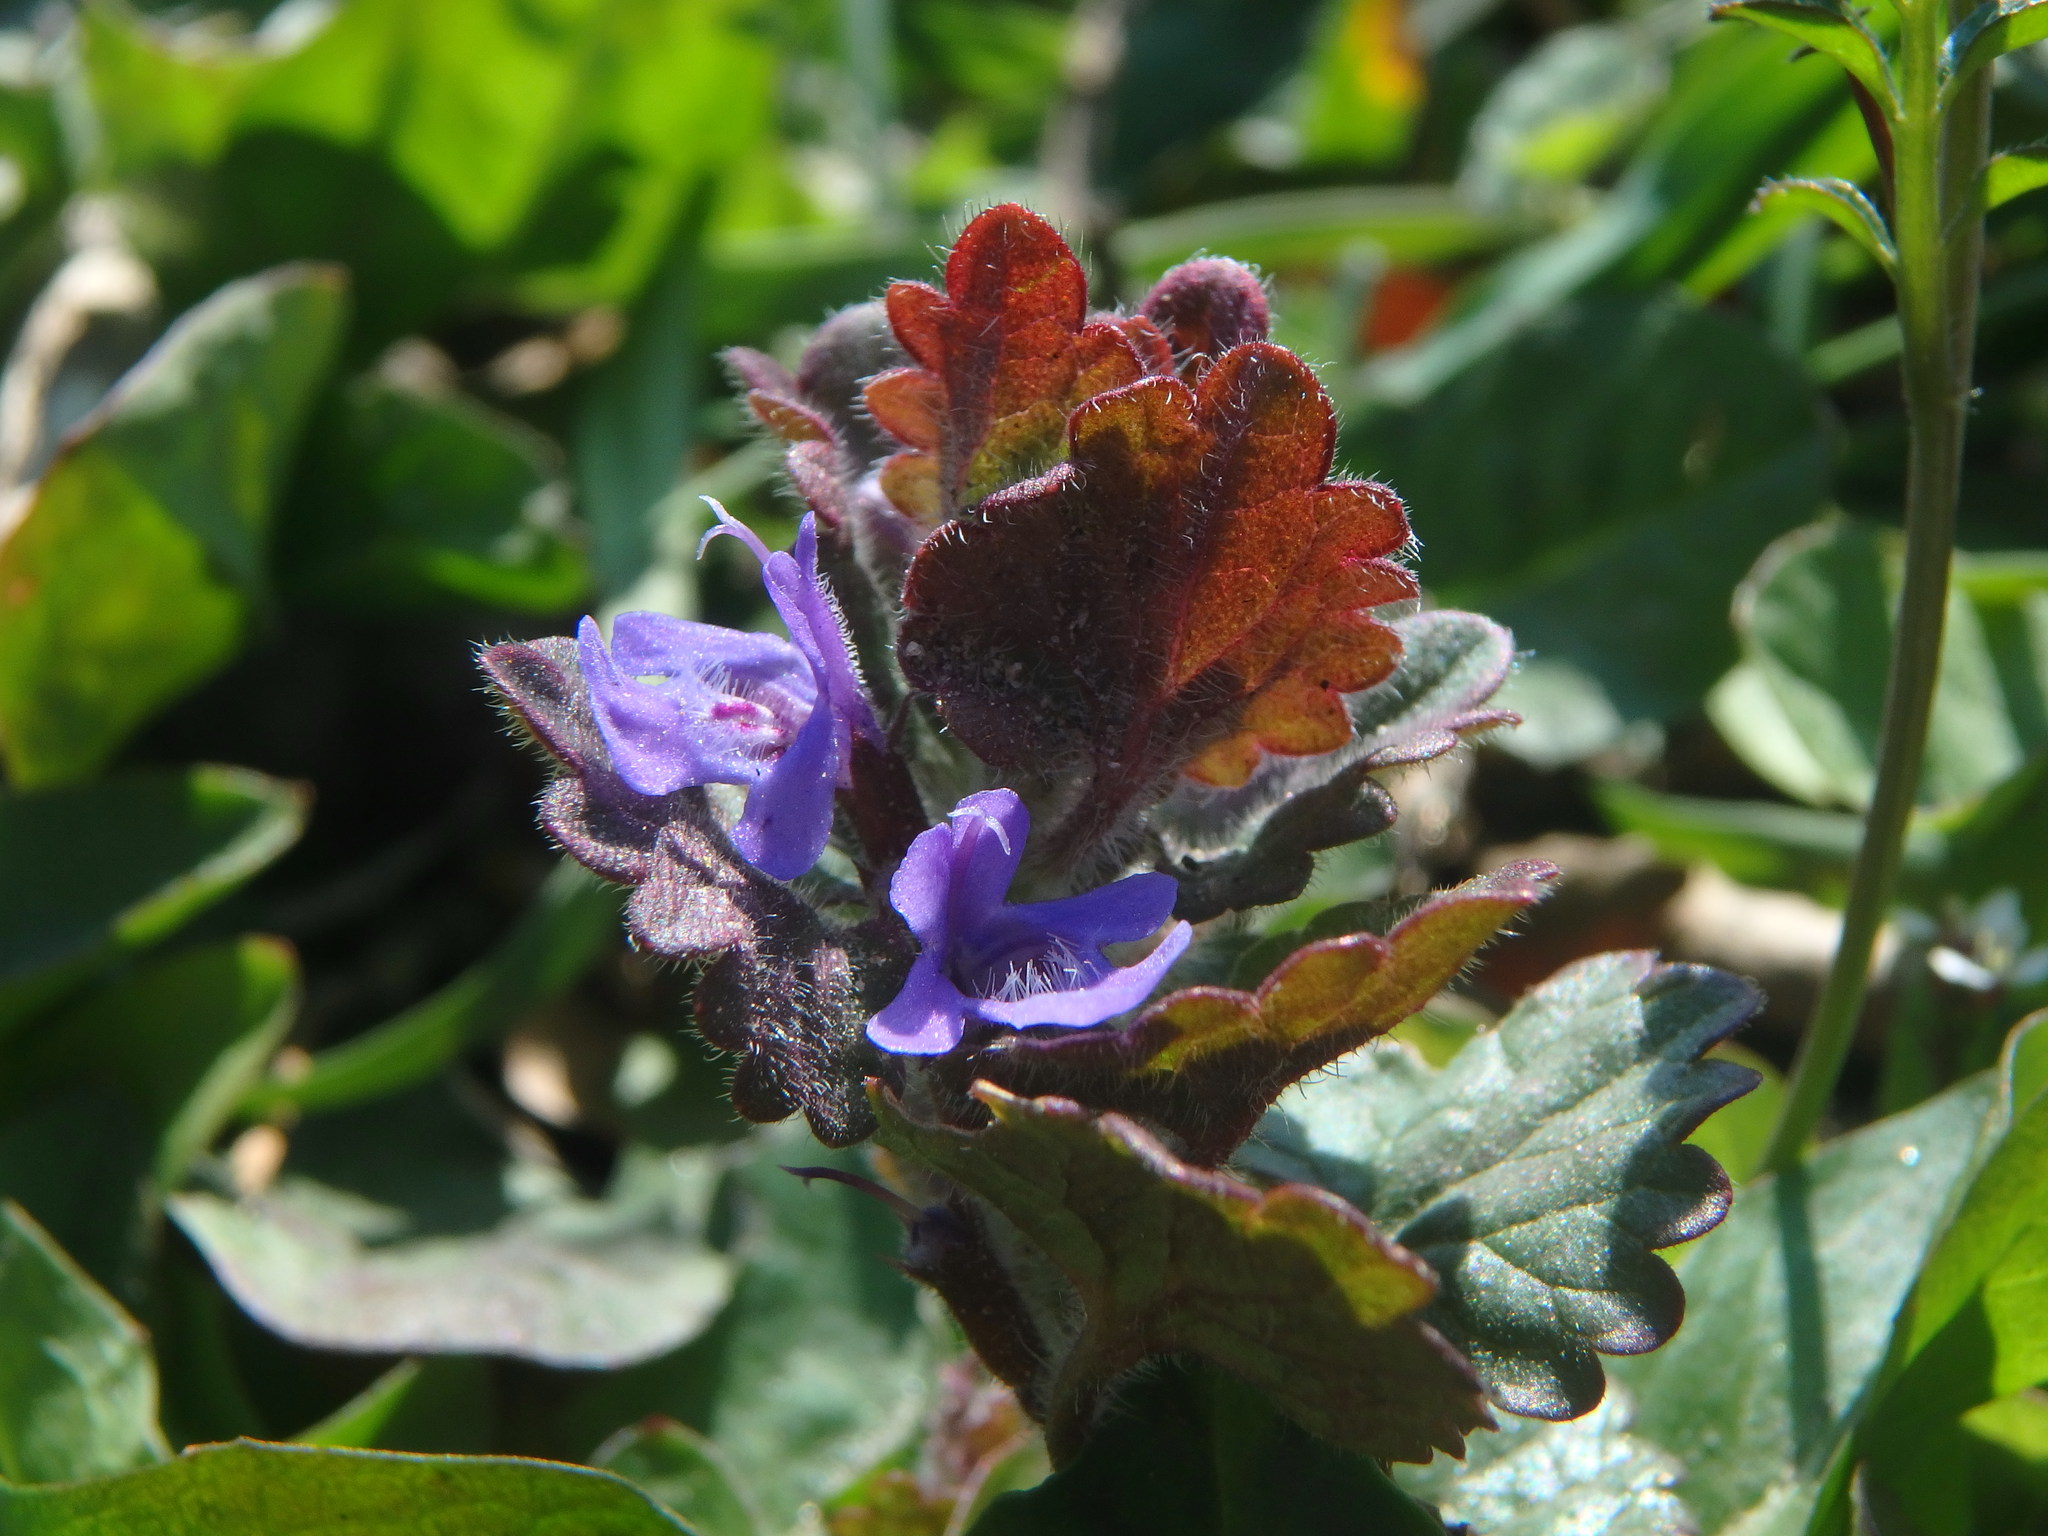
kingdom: Plantae
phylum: Tracheophyta
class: Magnoliopsida
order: Lamiales
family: Lamiaceae
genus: Glechoma
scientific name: Glechoma hederacea
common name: Ground ivy
